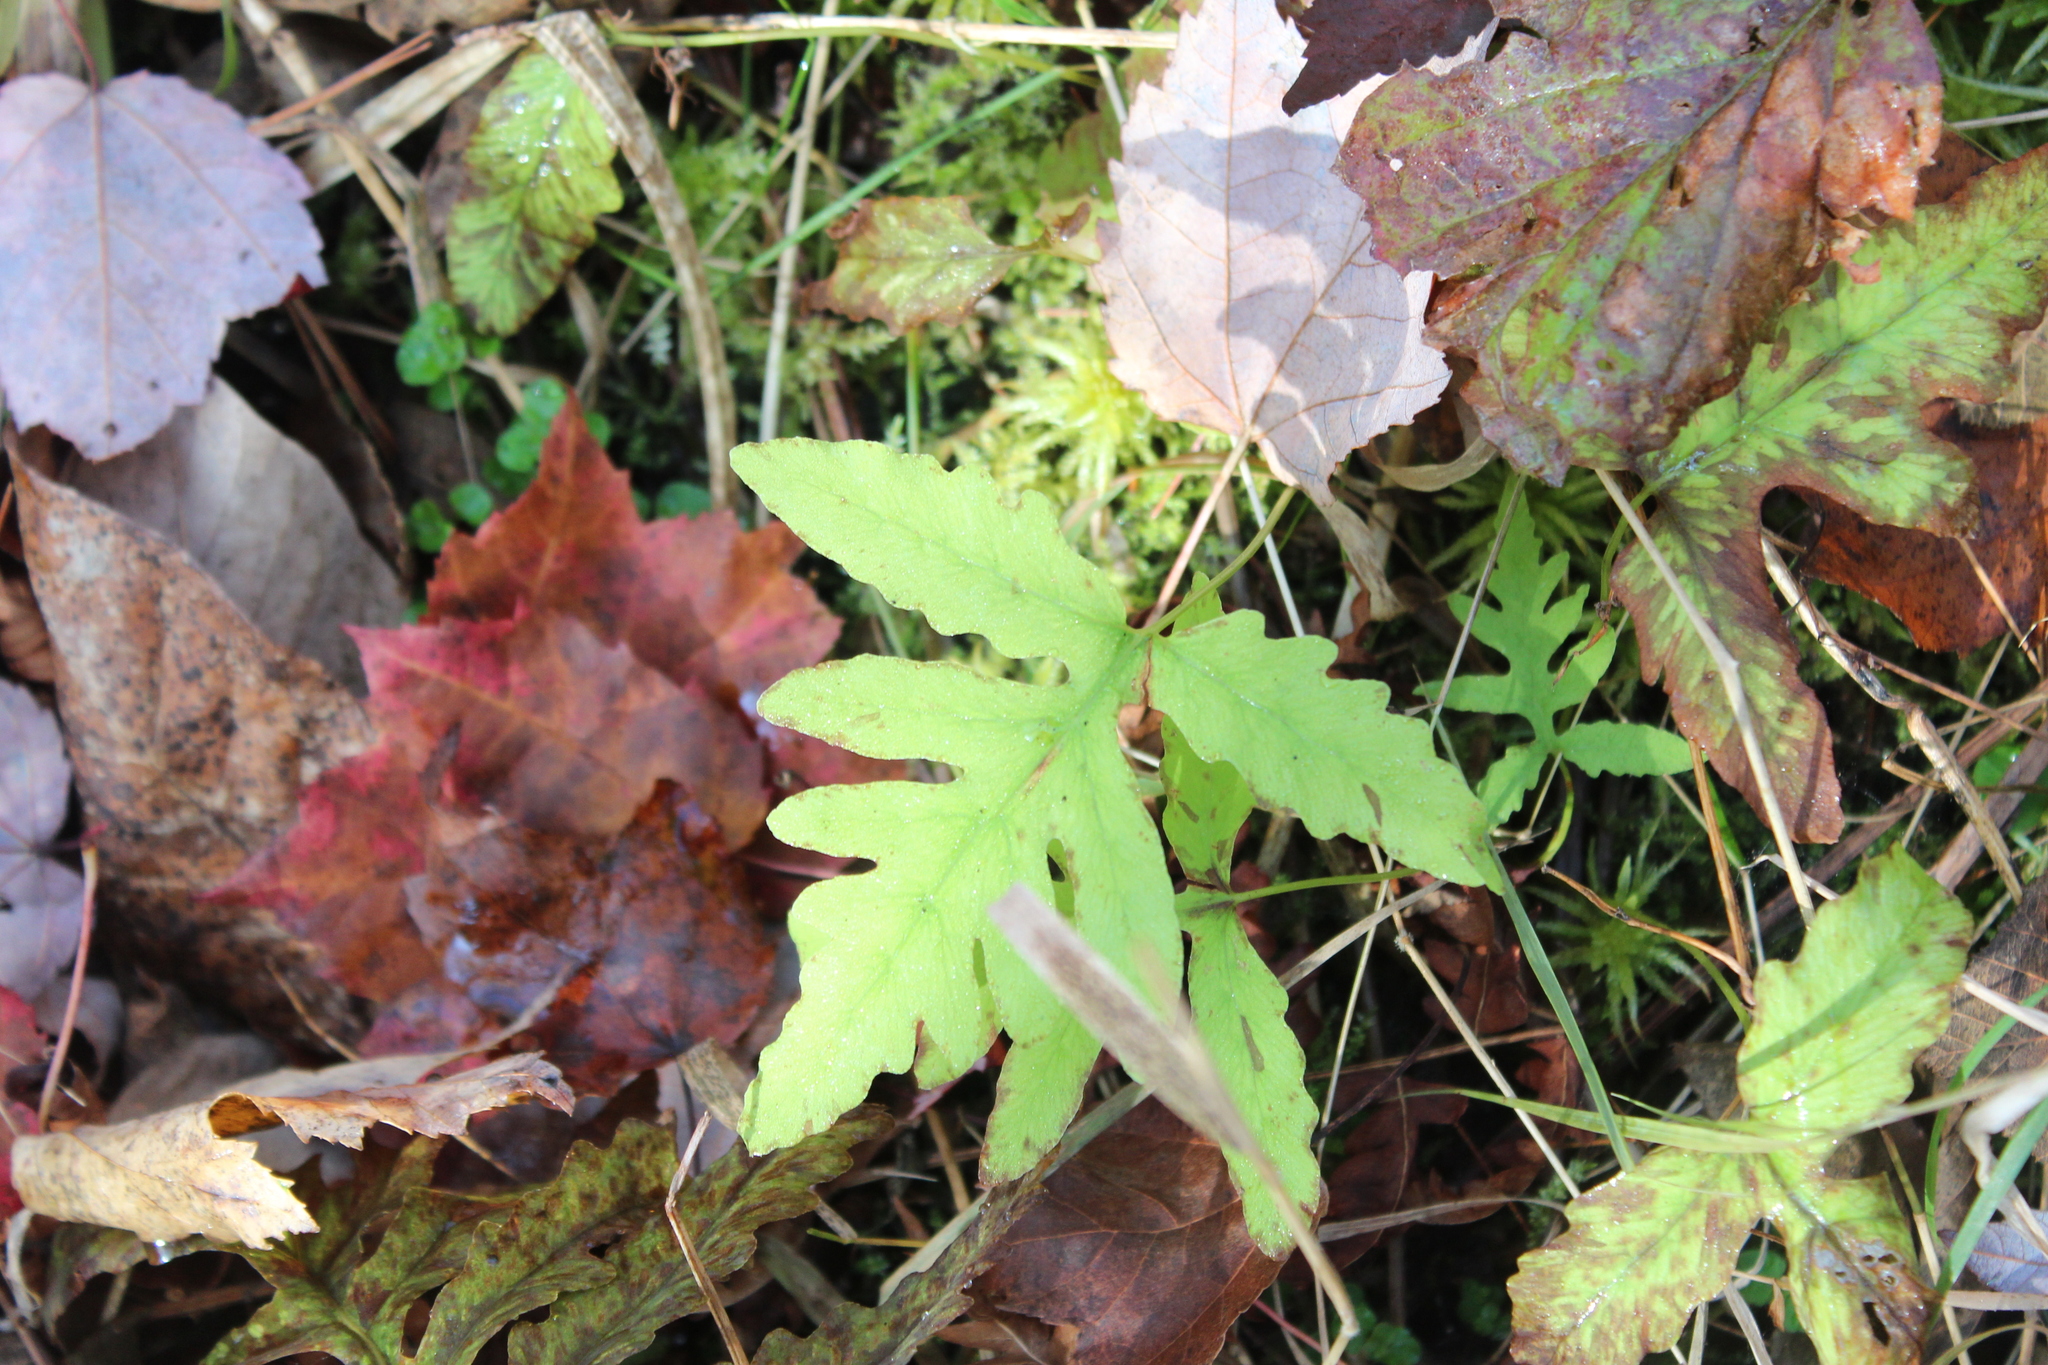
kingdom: Plantae
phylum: Tracheophyta
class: Polypodiopsida
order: Polypodiales
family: Onocleaceae
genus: Onoclea
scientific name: Onoclea sensibilis
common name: Sensitive fern
